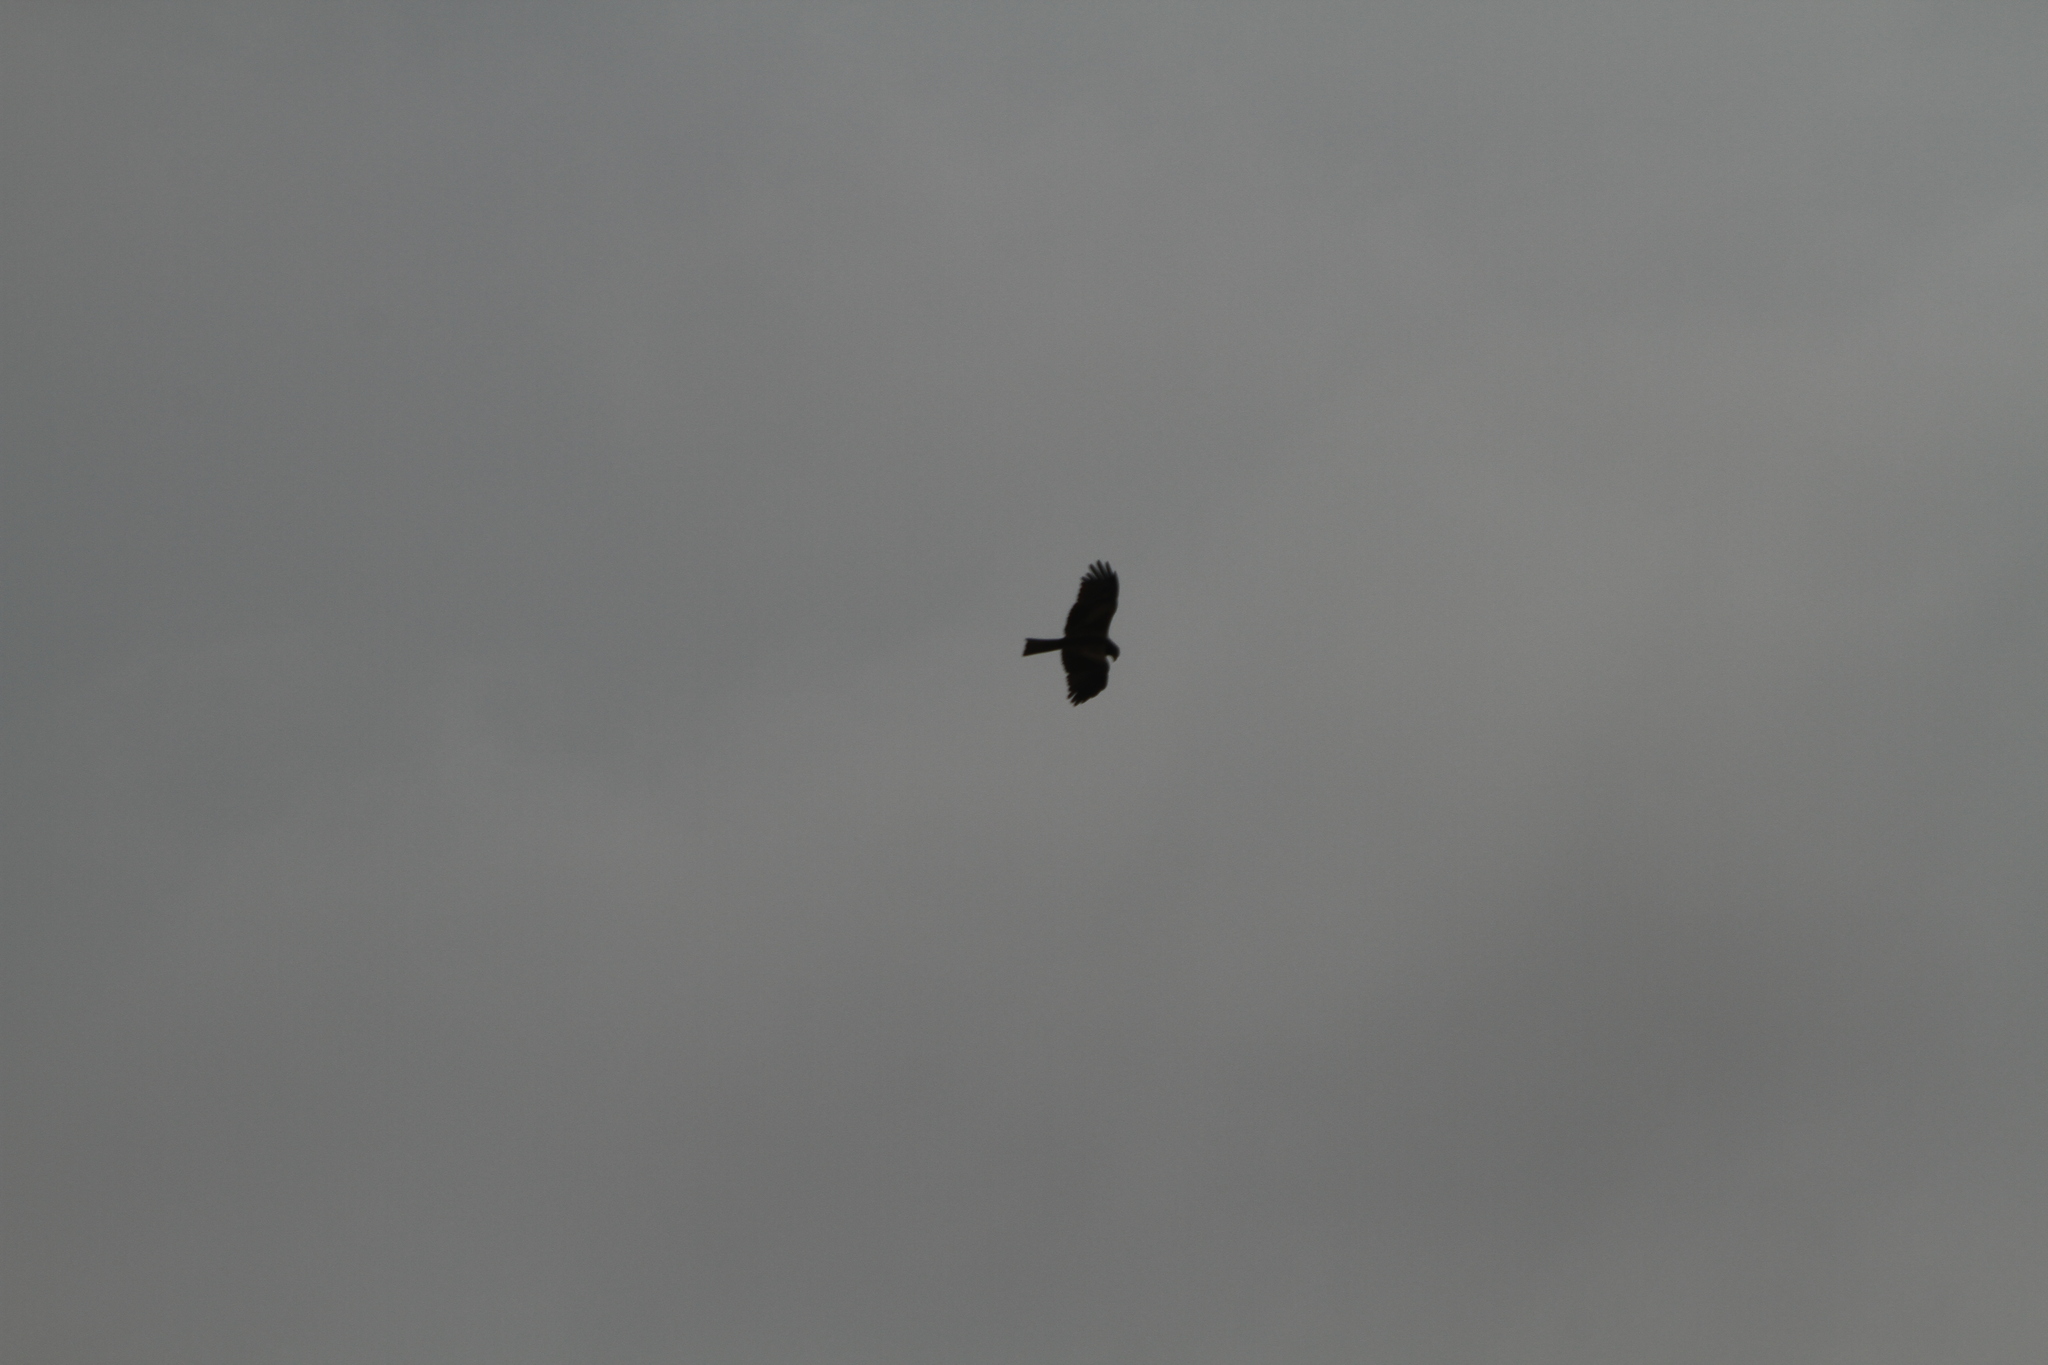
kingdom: Animalia
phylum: Chordata
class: Aves
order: Accipitriformes
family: Accipitridae
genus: Milvus
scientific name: Milvus migrans
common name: Black kite
